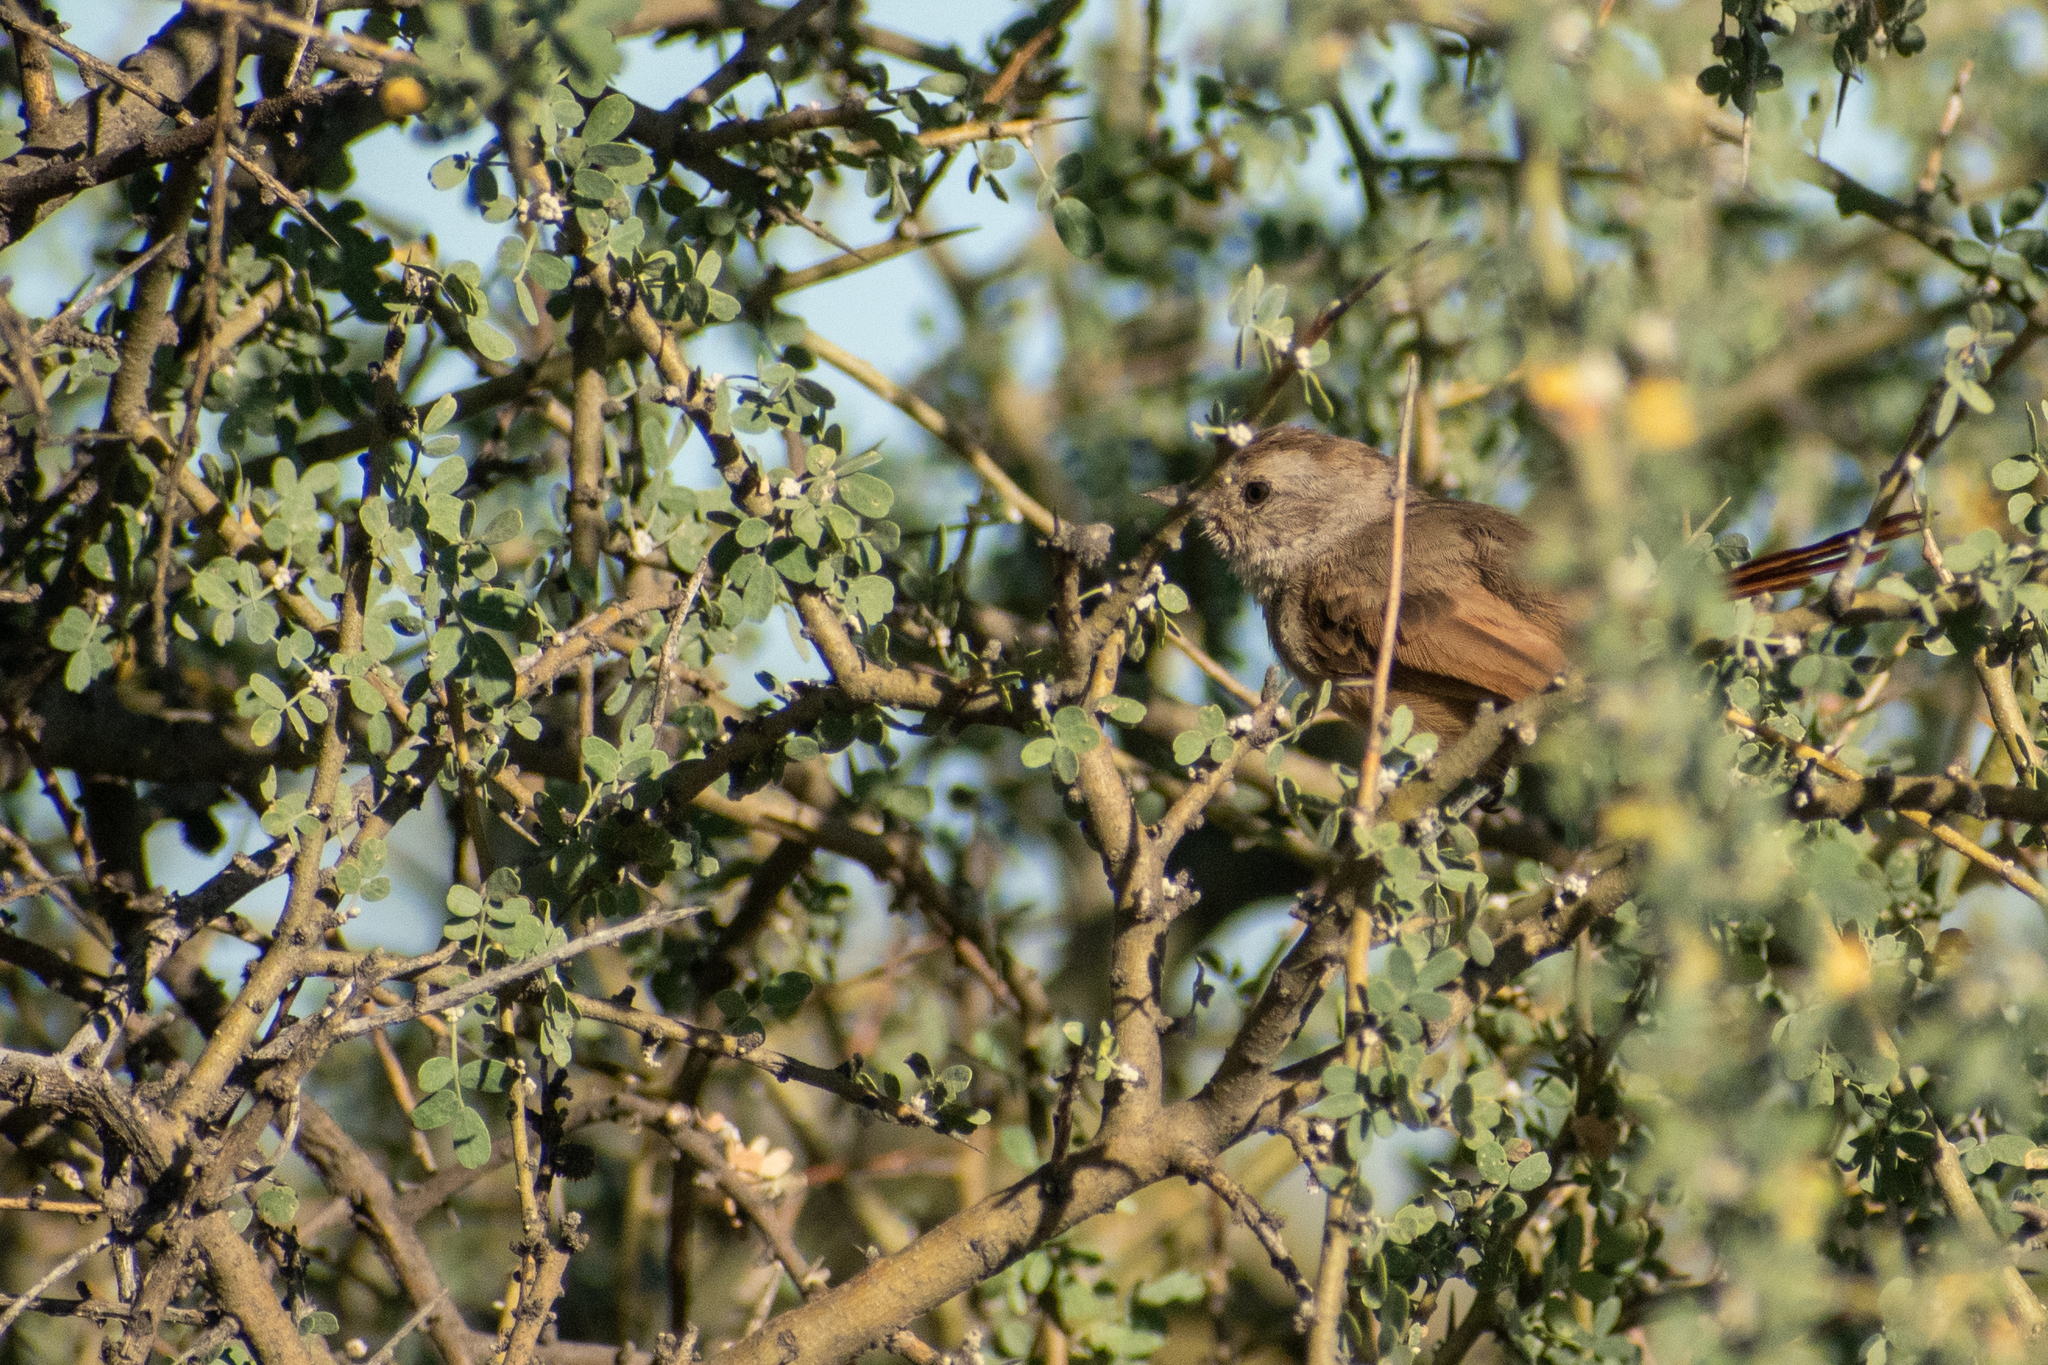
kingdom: Animalia
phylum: Chordata
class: Aves
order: Passeriformes
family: Furnariidae
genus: Asthenes
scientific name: Asthenes baeri
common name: Short-billed canastero
